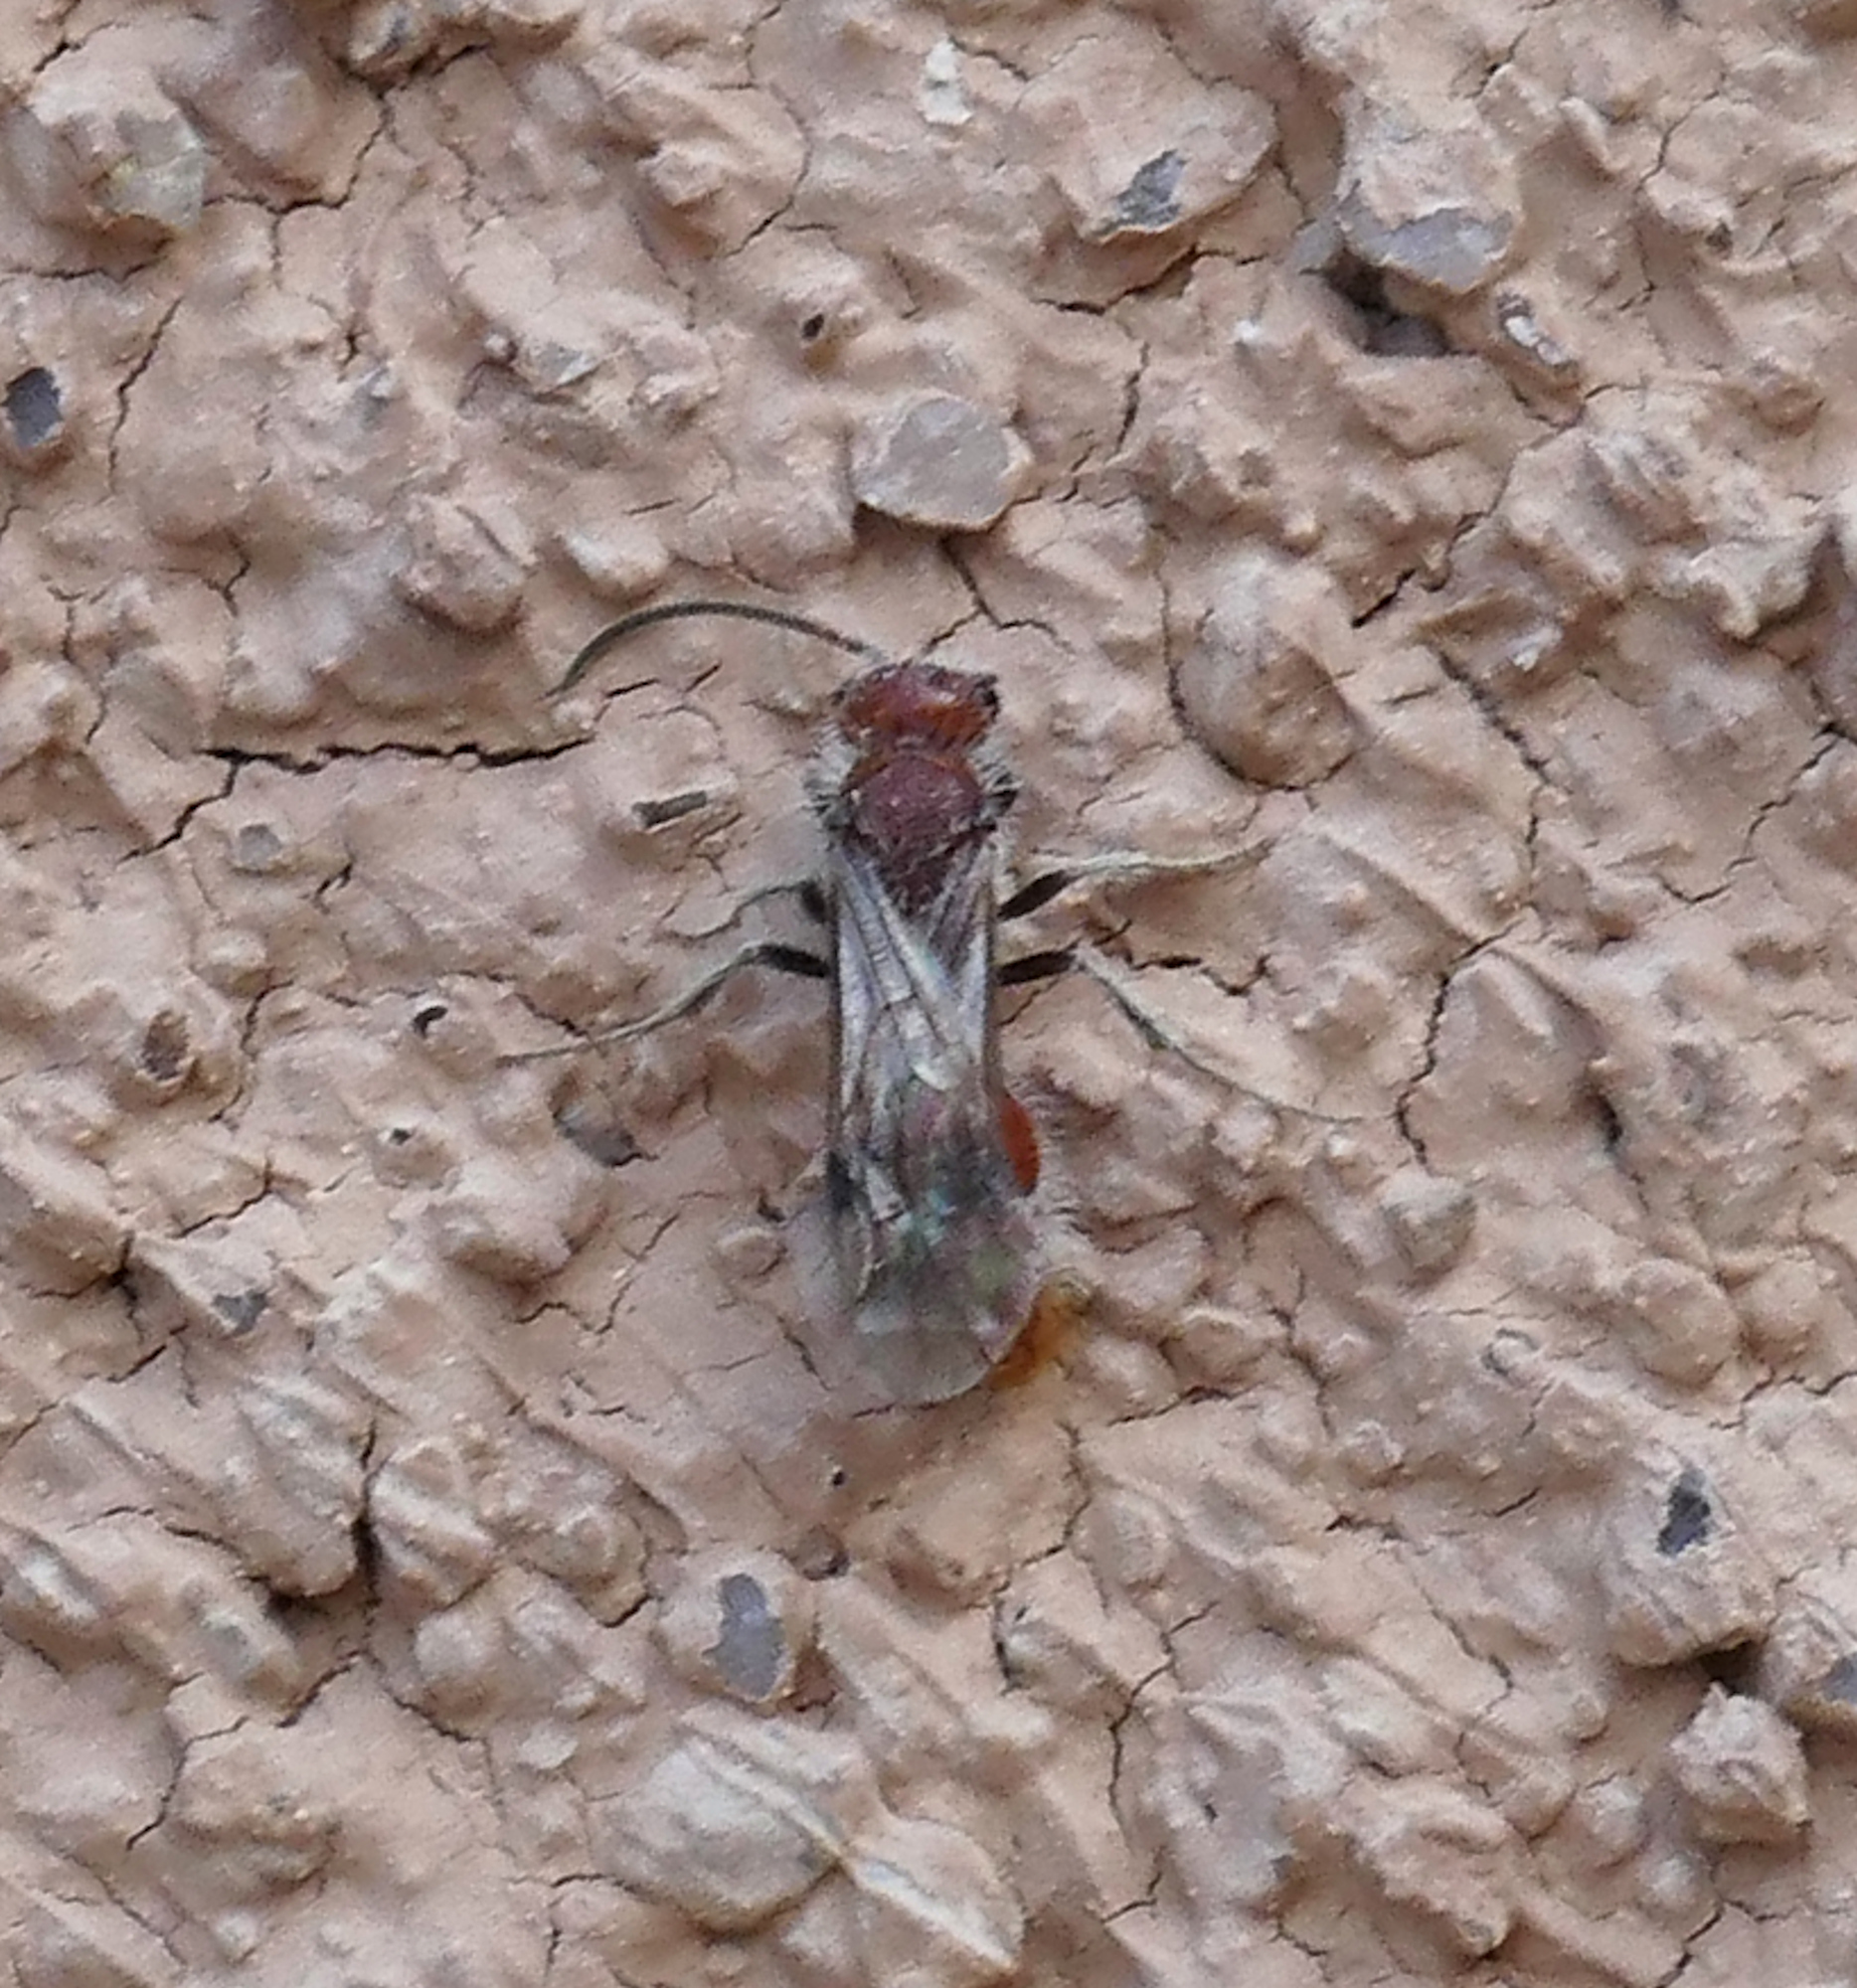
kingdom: Animalia
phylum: Arthropoda
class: Insecta
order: Hymenoptera
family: Mutillidae
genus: Photomorphus
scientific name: Photomorphus
